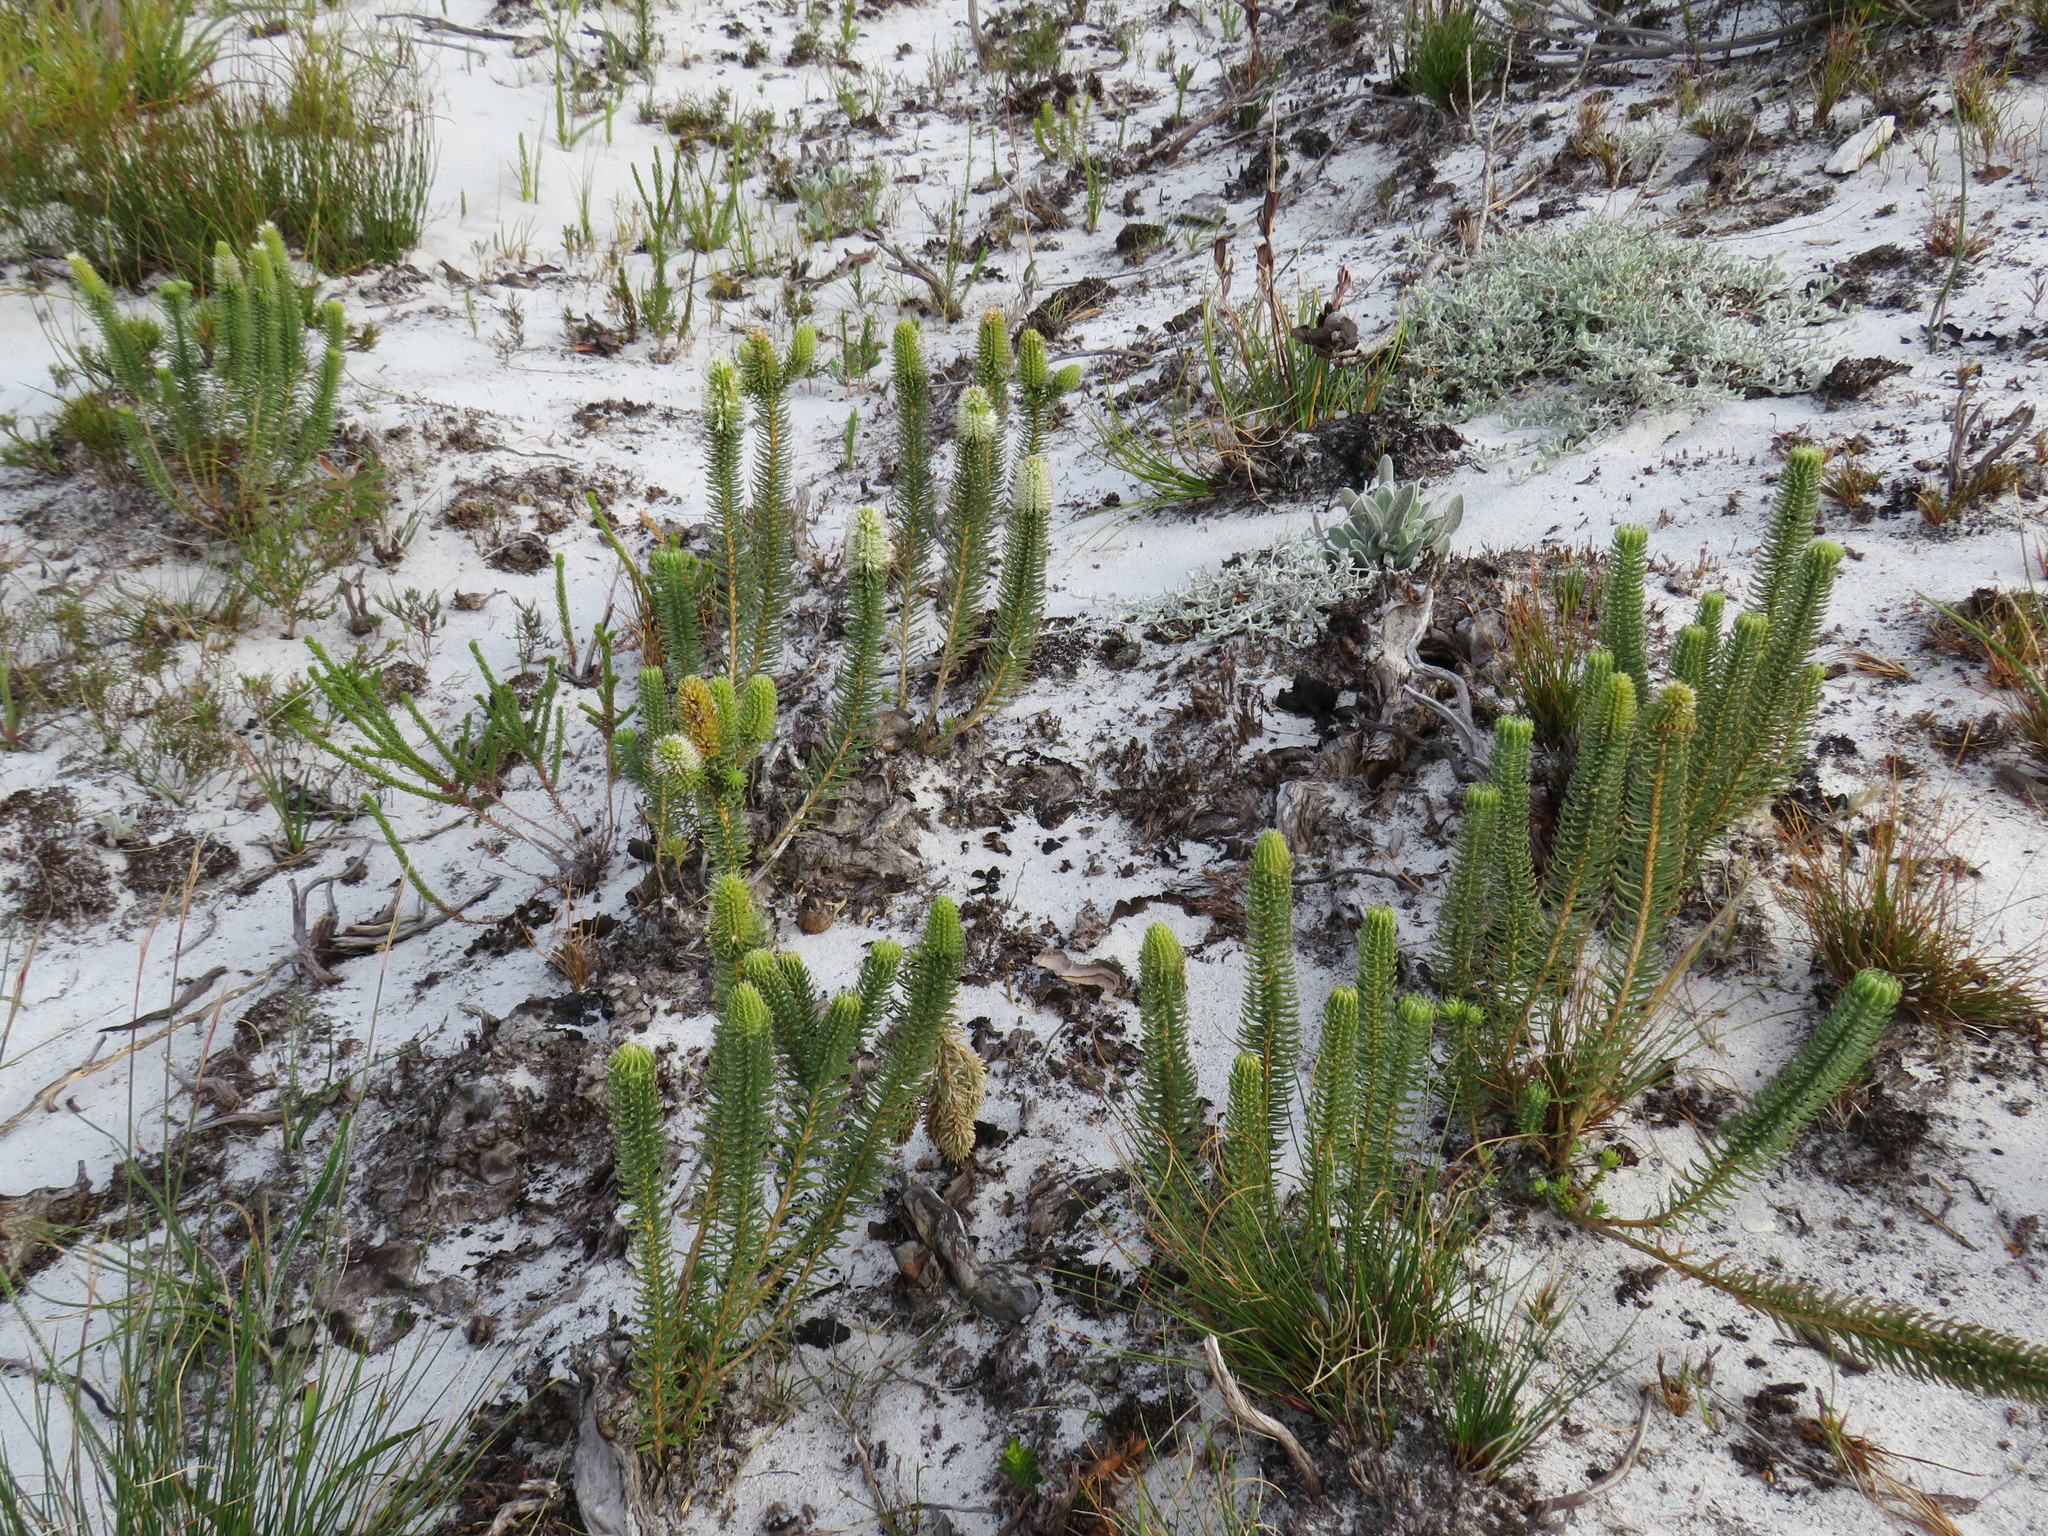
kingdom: Plantae
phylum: Tracheophyta
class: Magnoliopsida
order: Lamiales
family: Stilbaceae
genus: Stilbe
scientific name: Stilbe vestita
